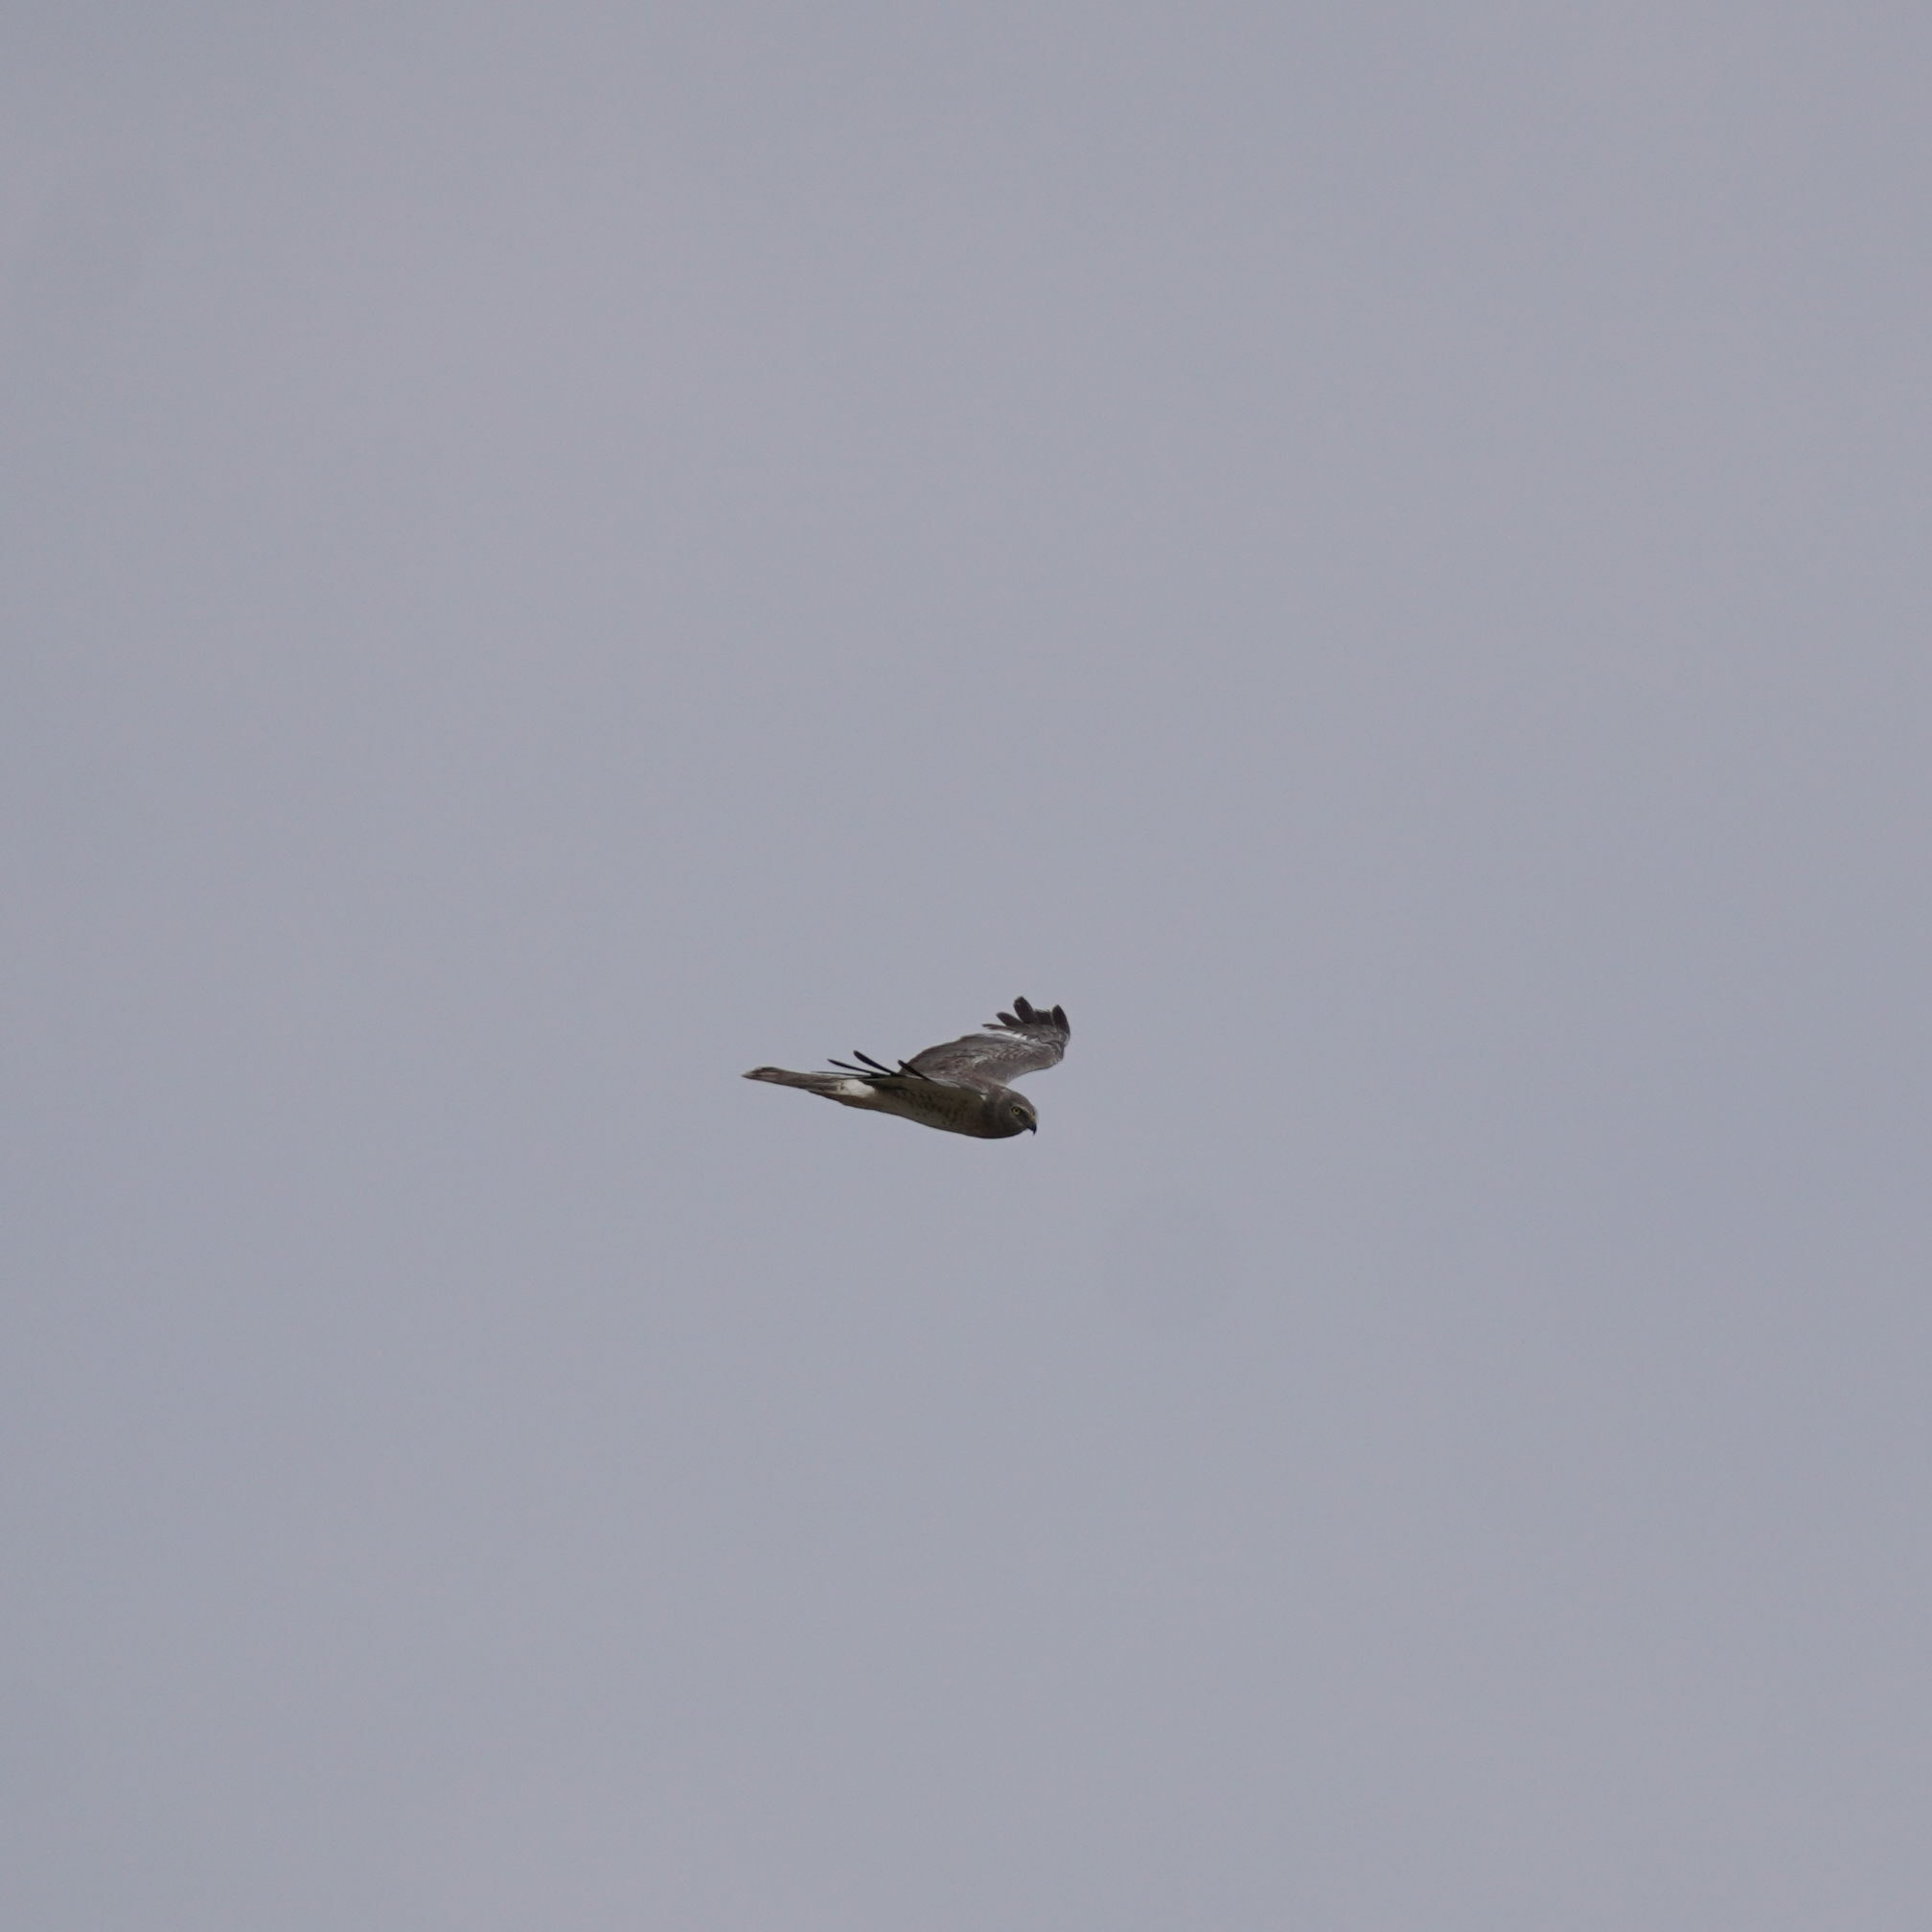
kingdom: Animalia
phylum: Chordata
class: Aves
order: Accipitriformes
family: Accipitridae
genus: Circus
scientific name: Circus cyaneus
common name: Hen harrier
